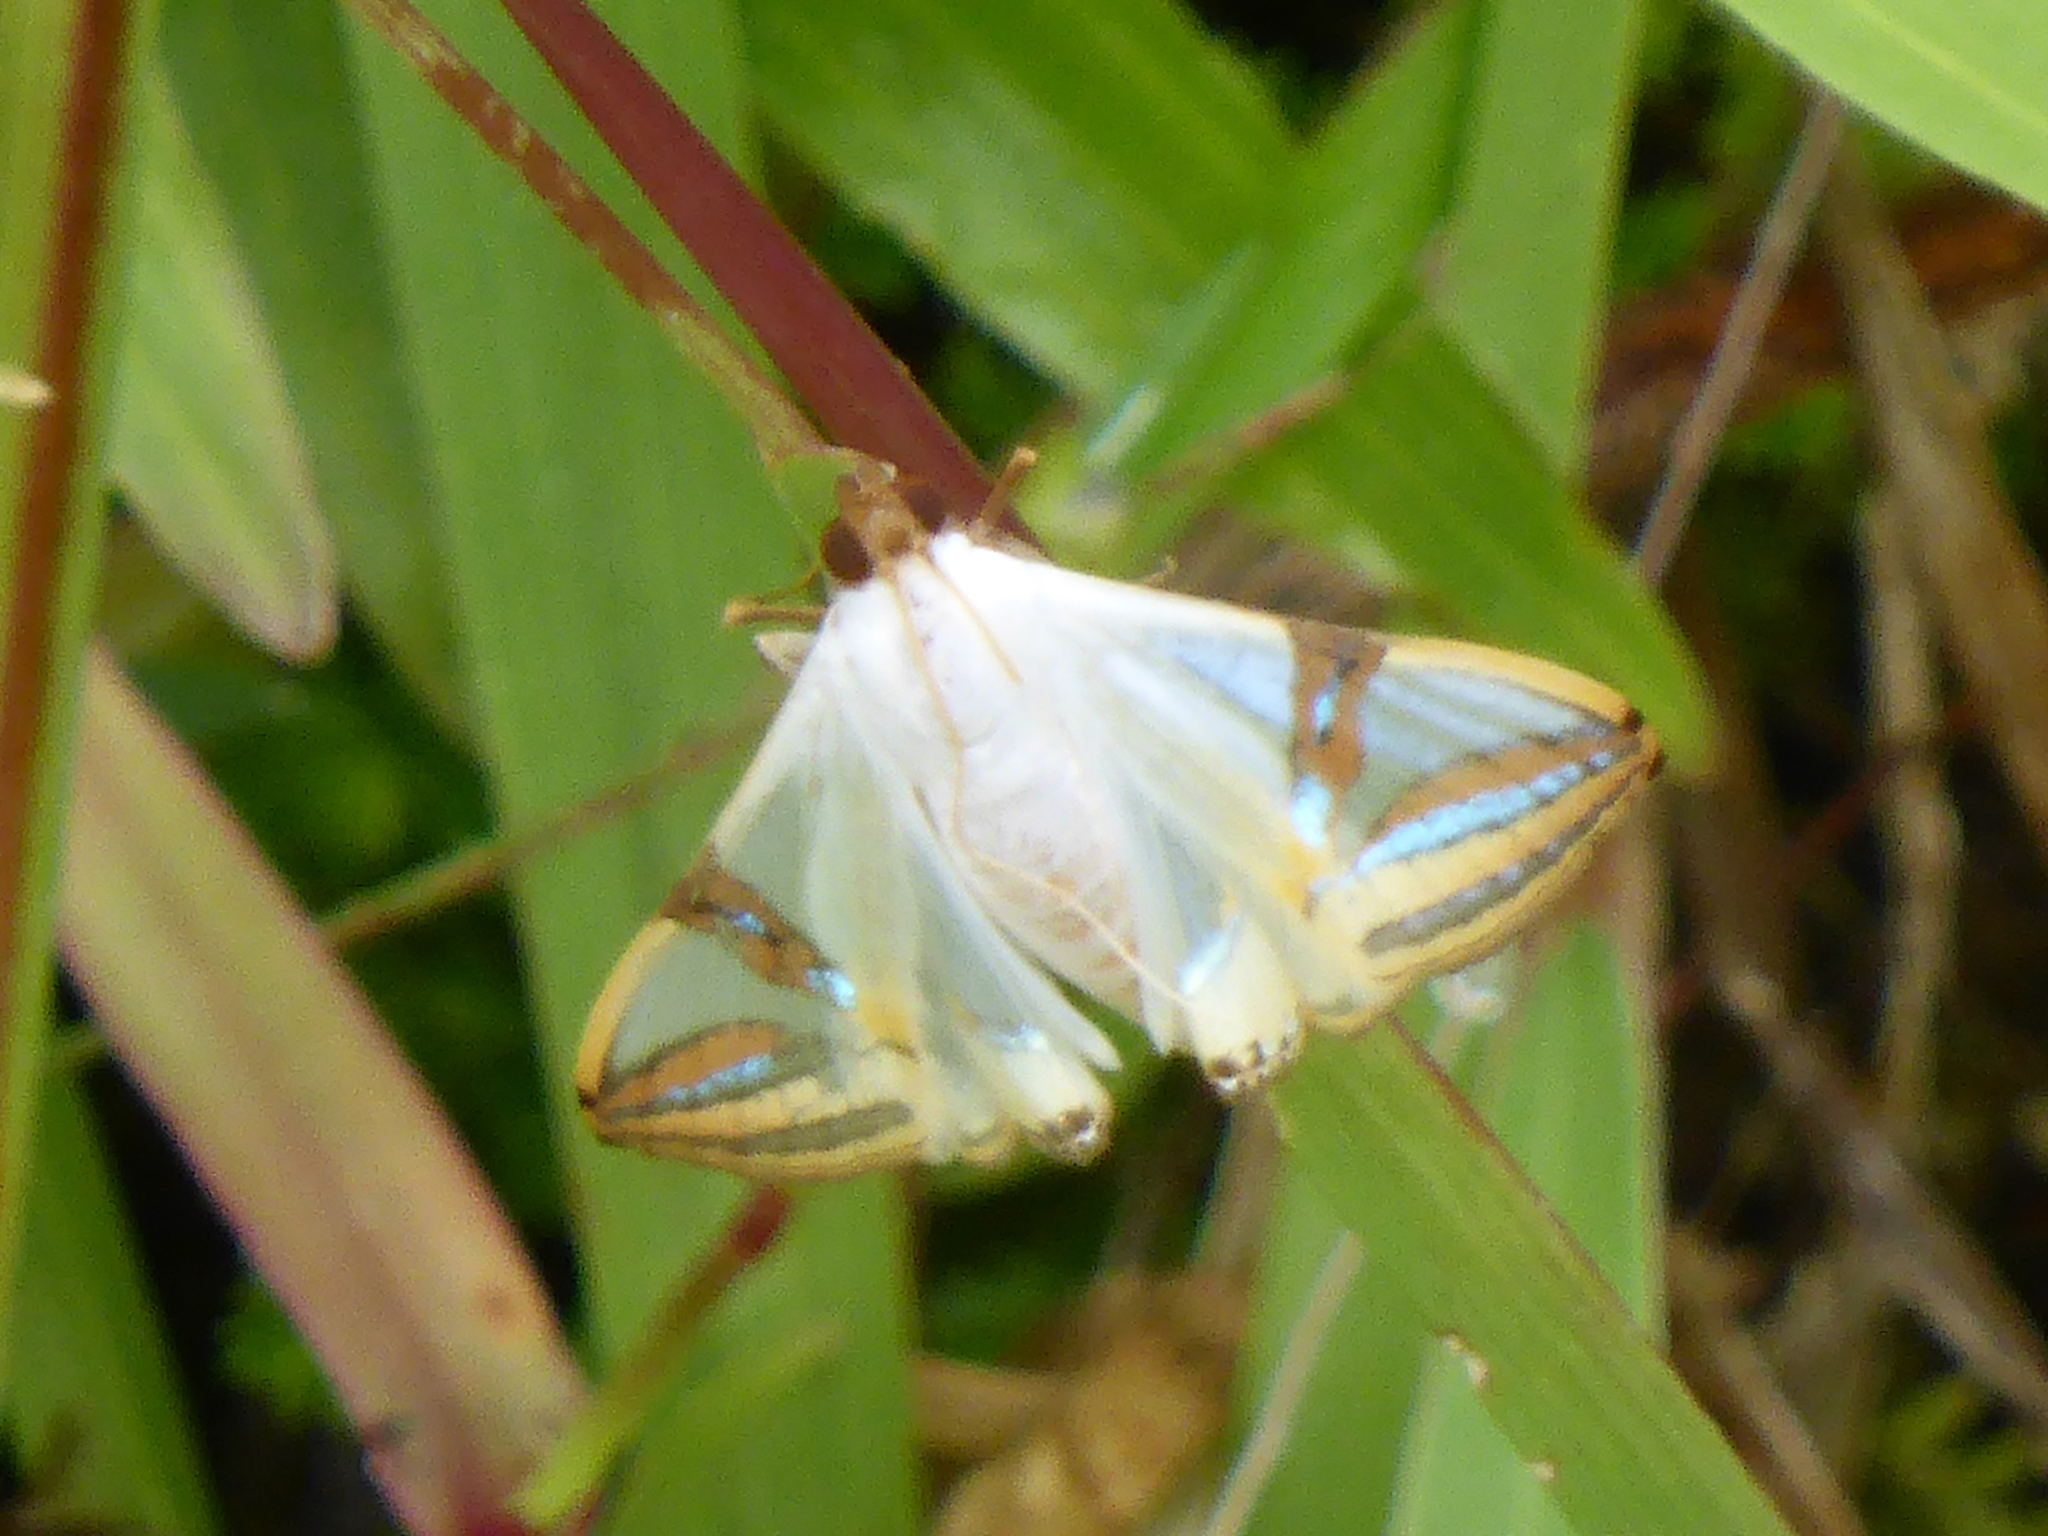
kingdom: Animalia
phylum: Arthropoda
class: Insecta
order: Lepidoptera
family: Crambidae
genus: Talanga
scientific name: Talanga sabacusalis
